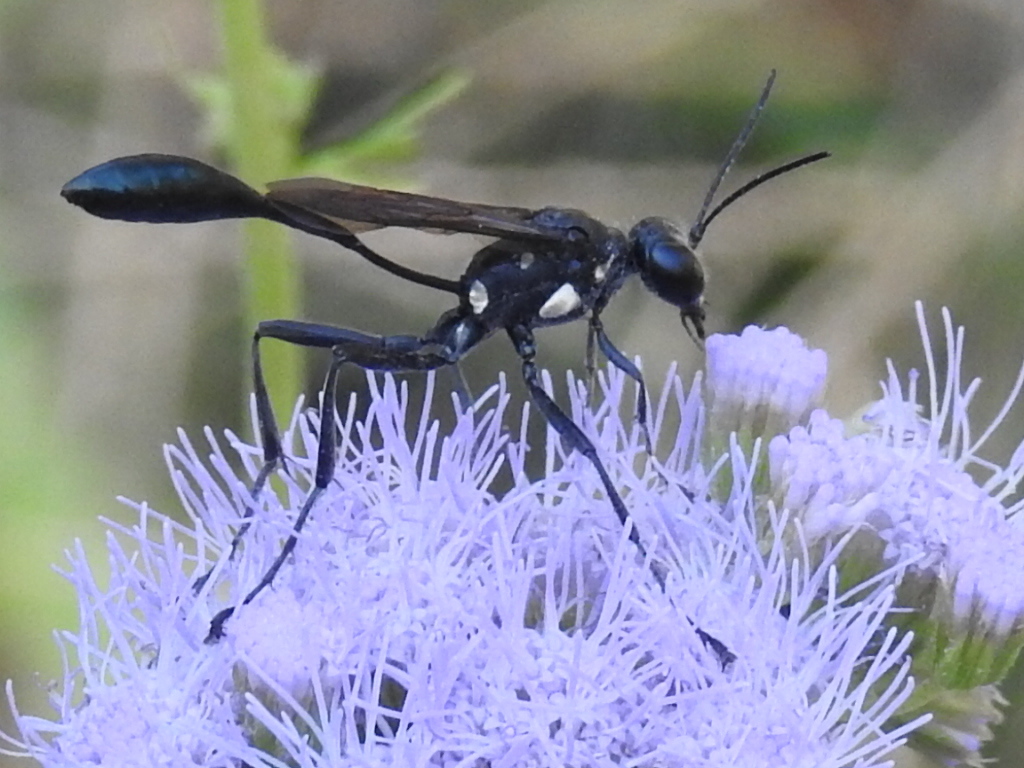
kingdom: Animalia
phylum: Arthropoda
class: Insecta
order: Hymenoptera
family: Sphecidae
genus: Eremnophila
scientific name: Eremnophila aureonotata
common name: Gold-marked thread-waisted wasp
